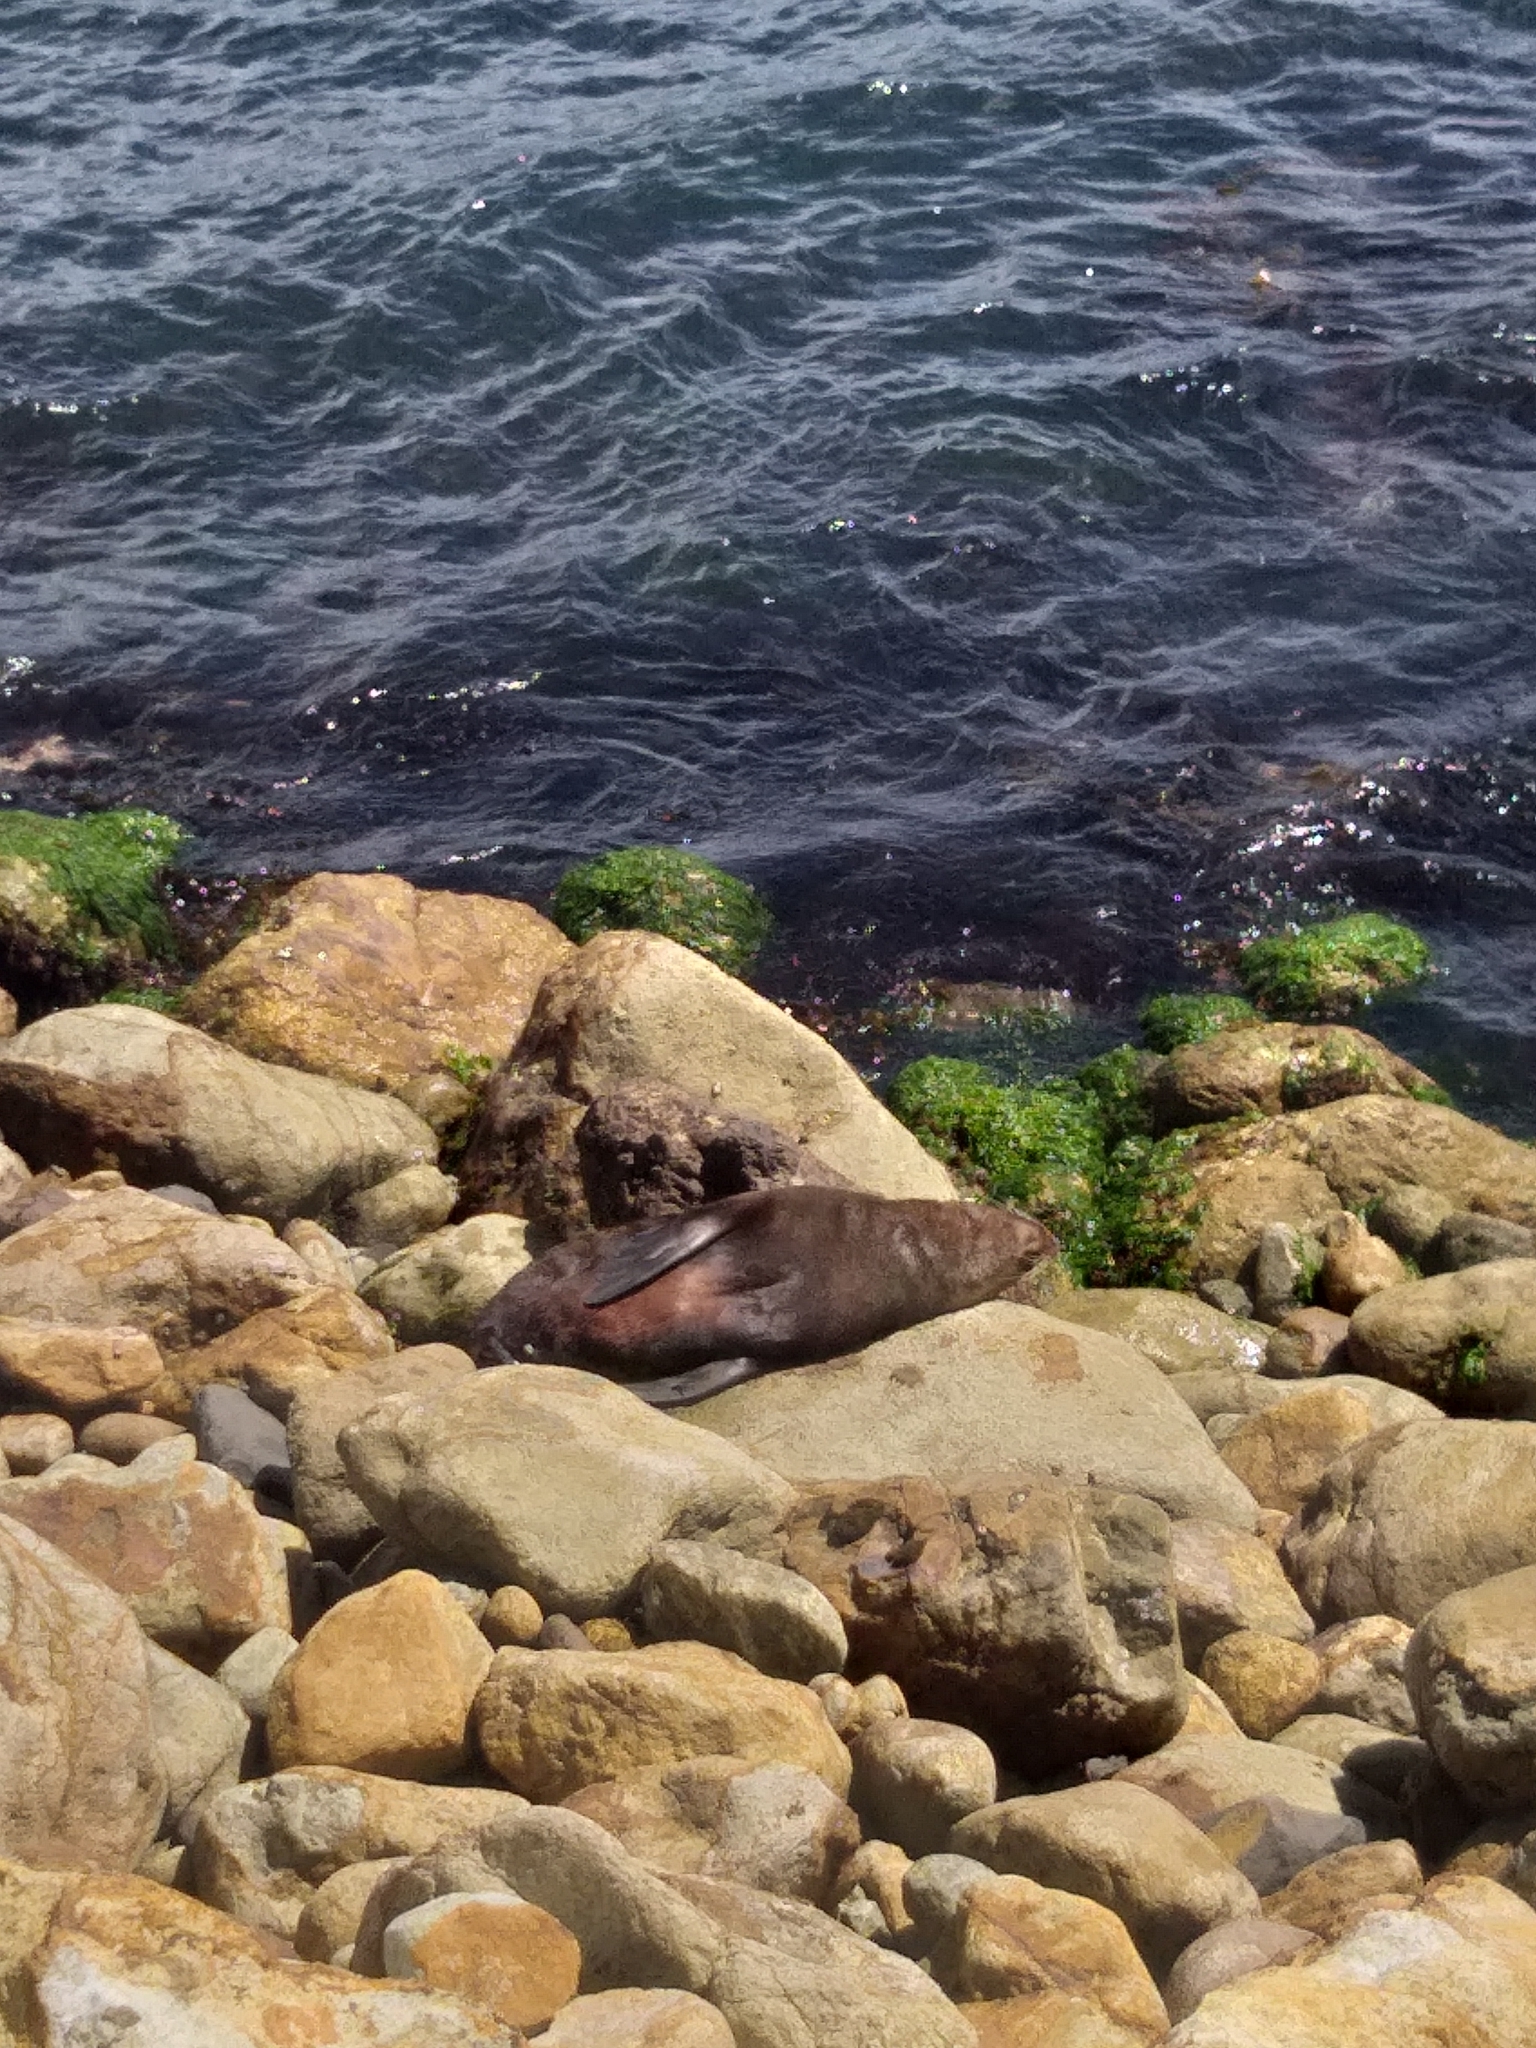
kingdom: Animalia
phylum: Chordata
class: Mammalia
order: Carnivora
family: Otariidae
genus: Arctocephalus
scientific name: Arctocephalus forsteri
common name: New zealand fur seal
